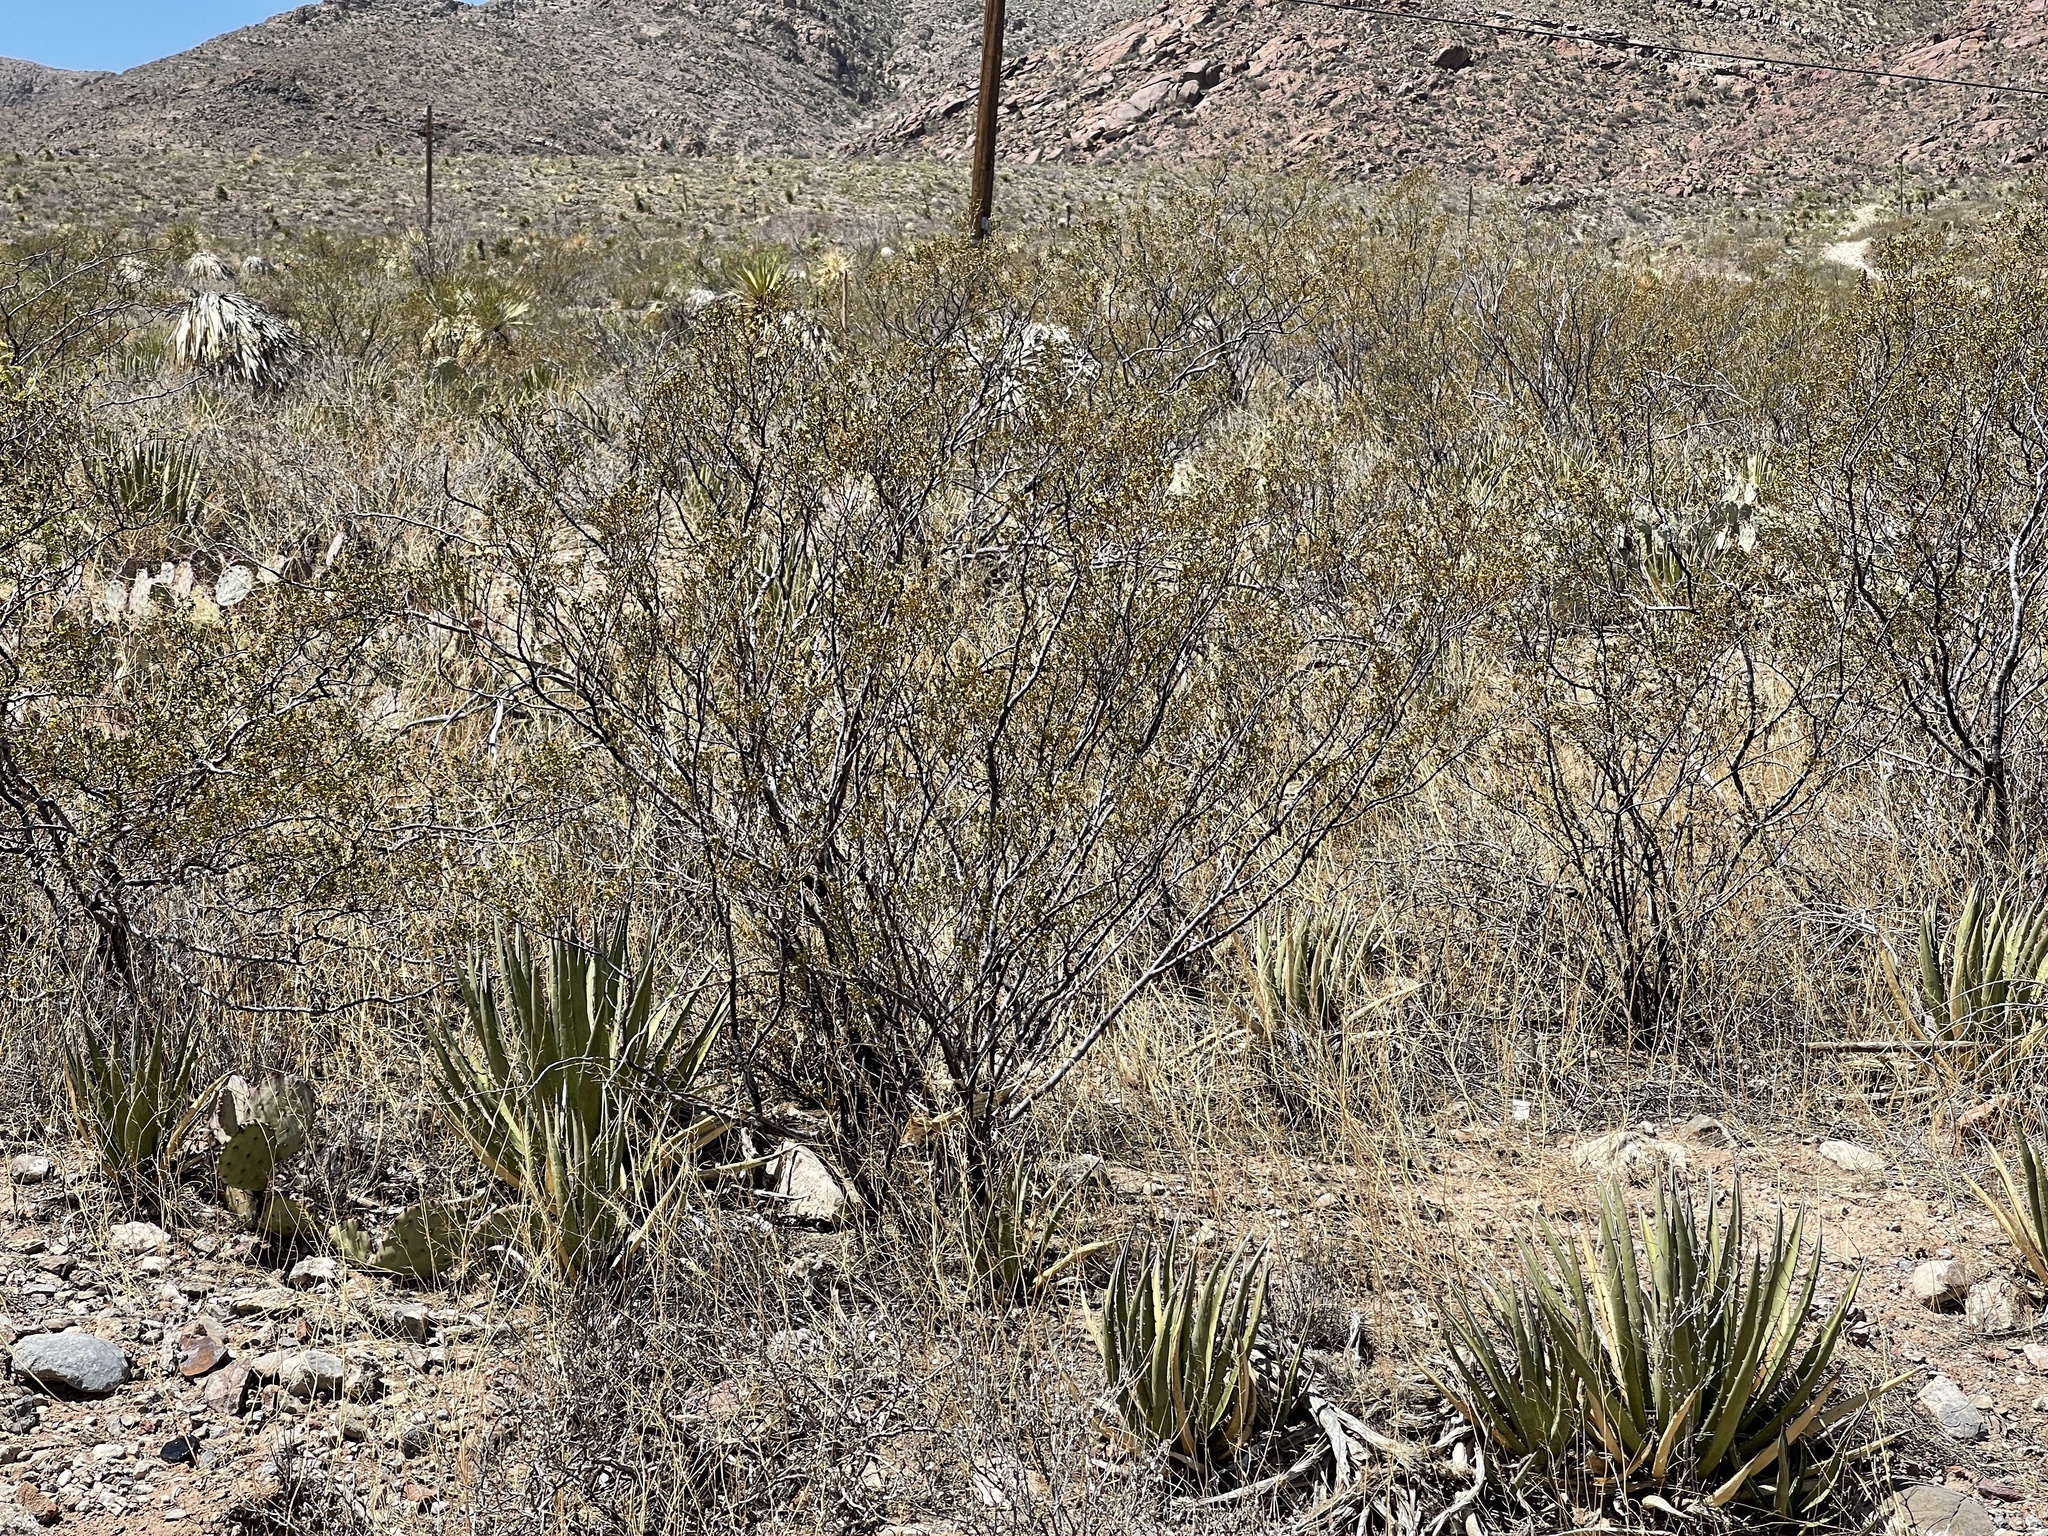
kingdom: Plantae
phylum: Tracheophyta
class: Magnoliopsida
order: Zygophyllales
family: Zygophyllaceae
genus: Larrea
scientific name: Larrea tridentata
